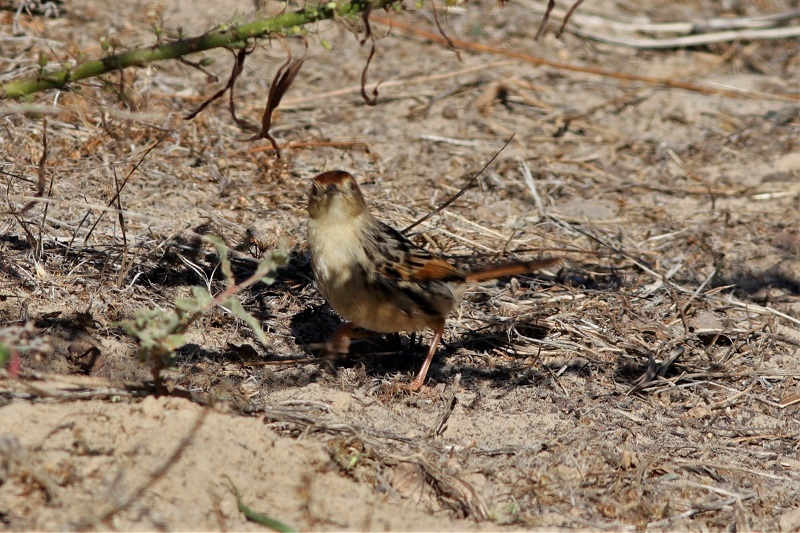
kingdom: Animalia
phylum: Chordata
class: Aves
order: Passeriformes
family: Cisticolidae
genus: Cisticola
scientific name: Cisticola tinniens
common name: Levaillant's cisticola
